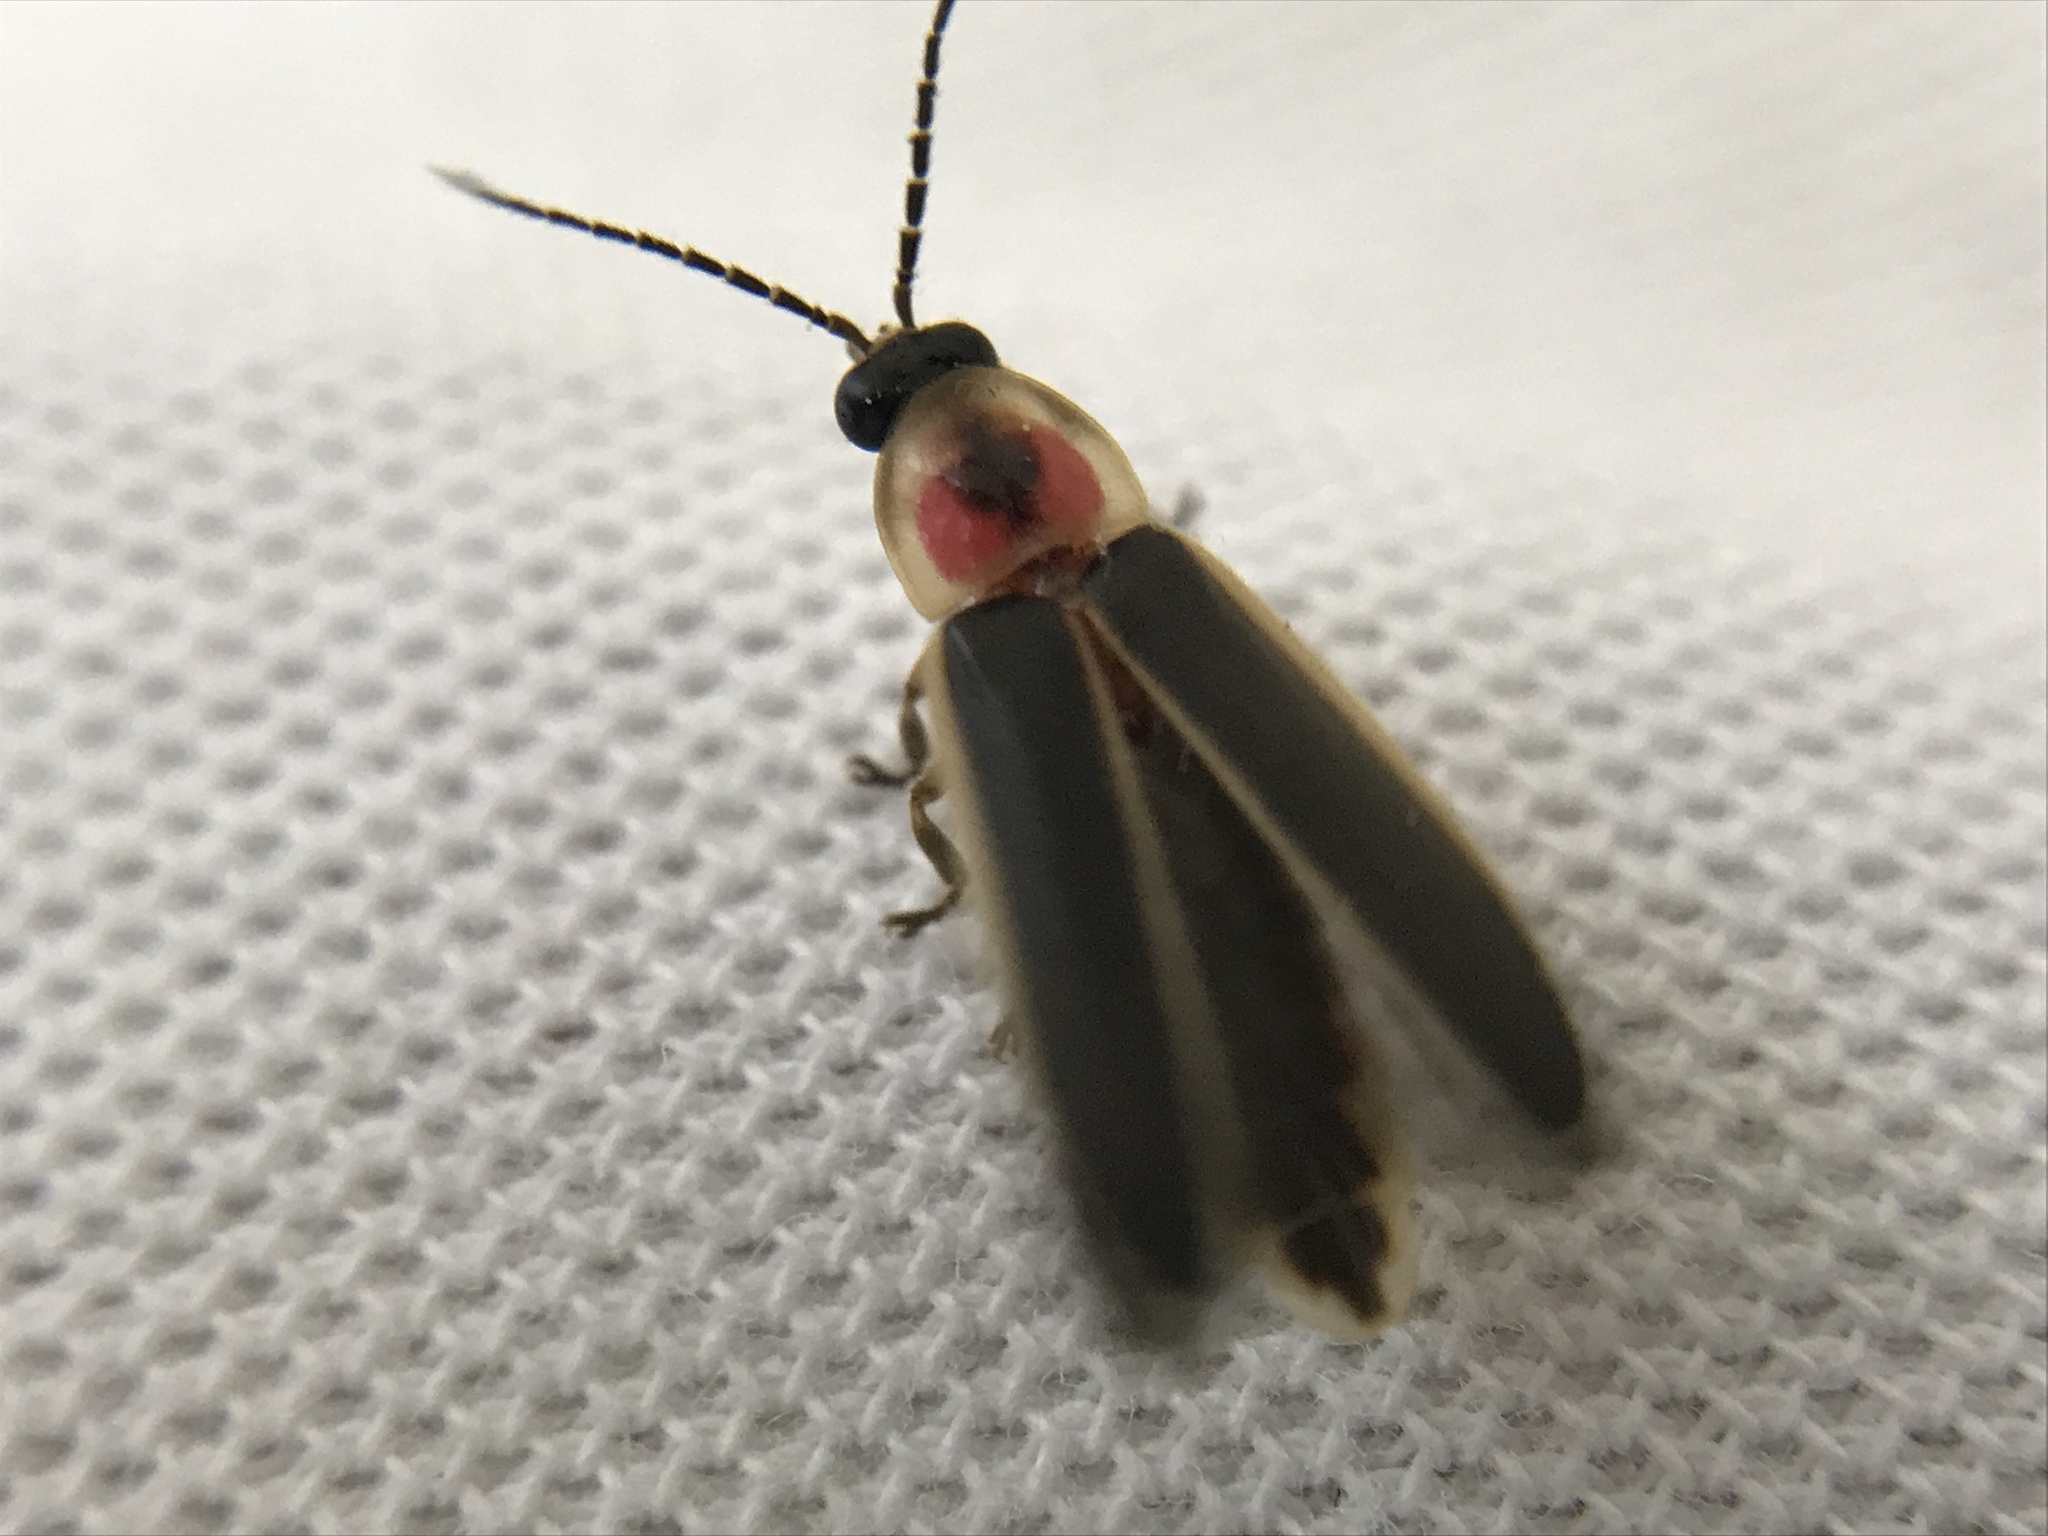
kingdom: Animalia
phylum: Arthropoda
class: Insecta
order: Coleoptera
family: Lampyridae
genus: Photinus
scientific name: Photinus pyralis
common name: Big dipper firefly
